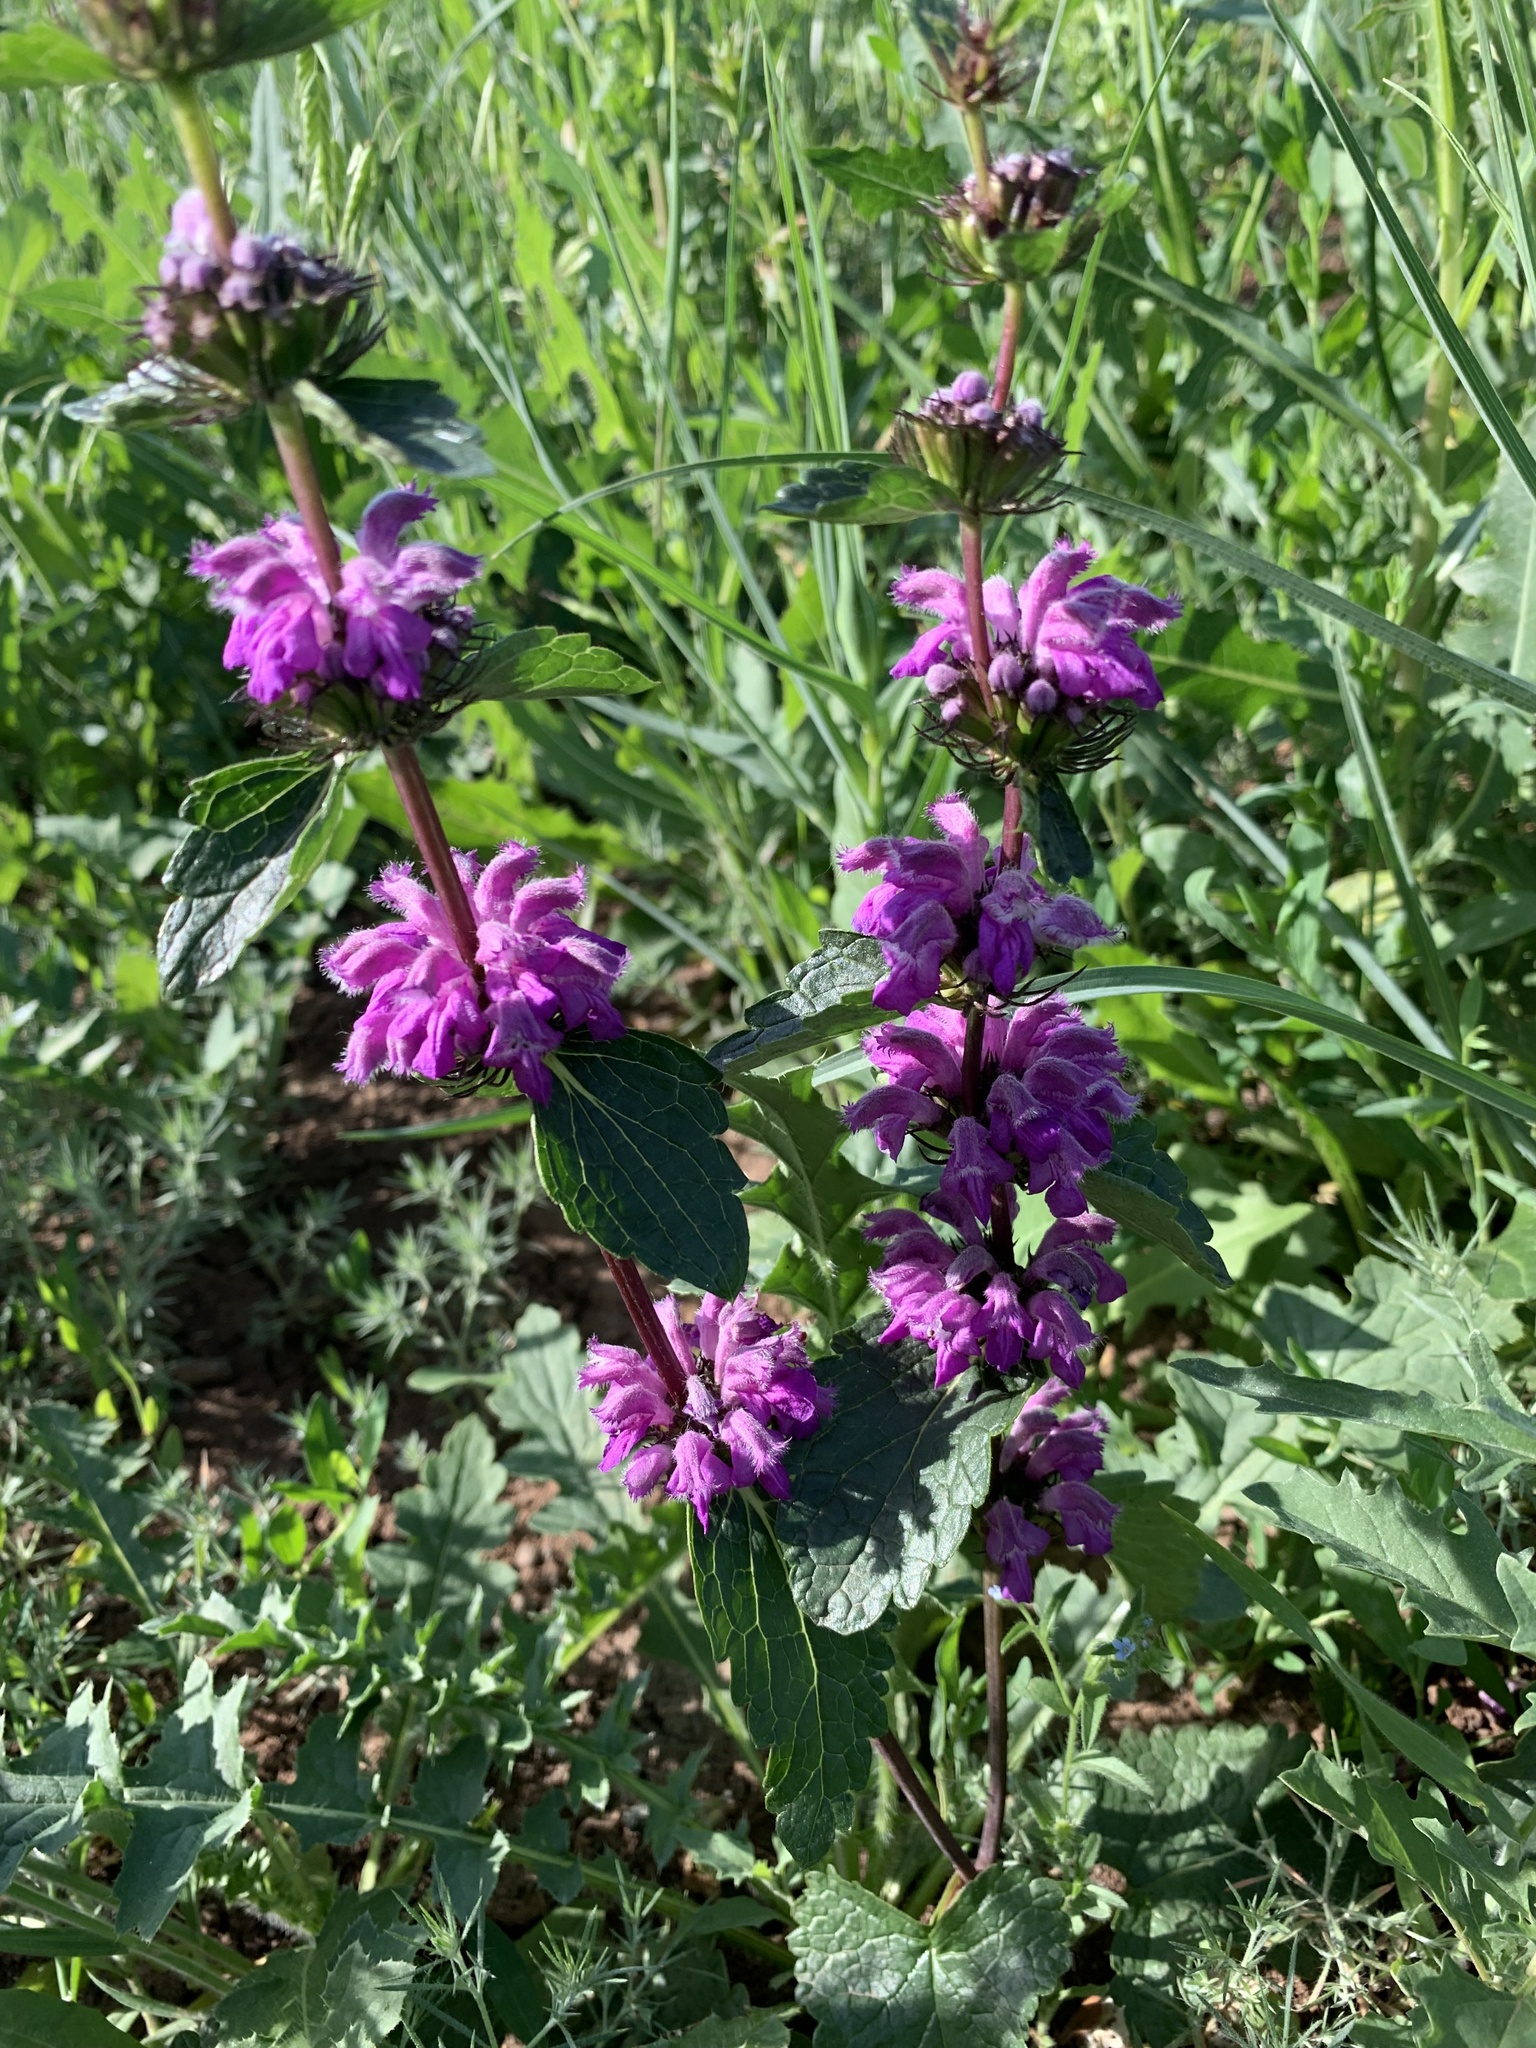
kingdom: Plantae
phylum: Tracheophyta
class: Magnoliopsida
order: Lamiales
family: Lamiaceae
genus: Phlomoides
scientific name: Phlomoides tuberosa
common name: Tuberous jerusalem sage
